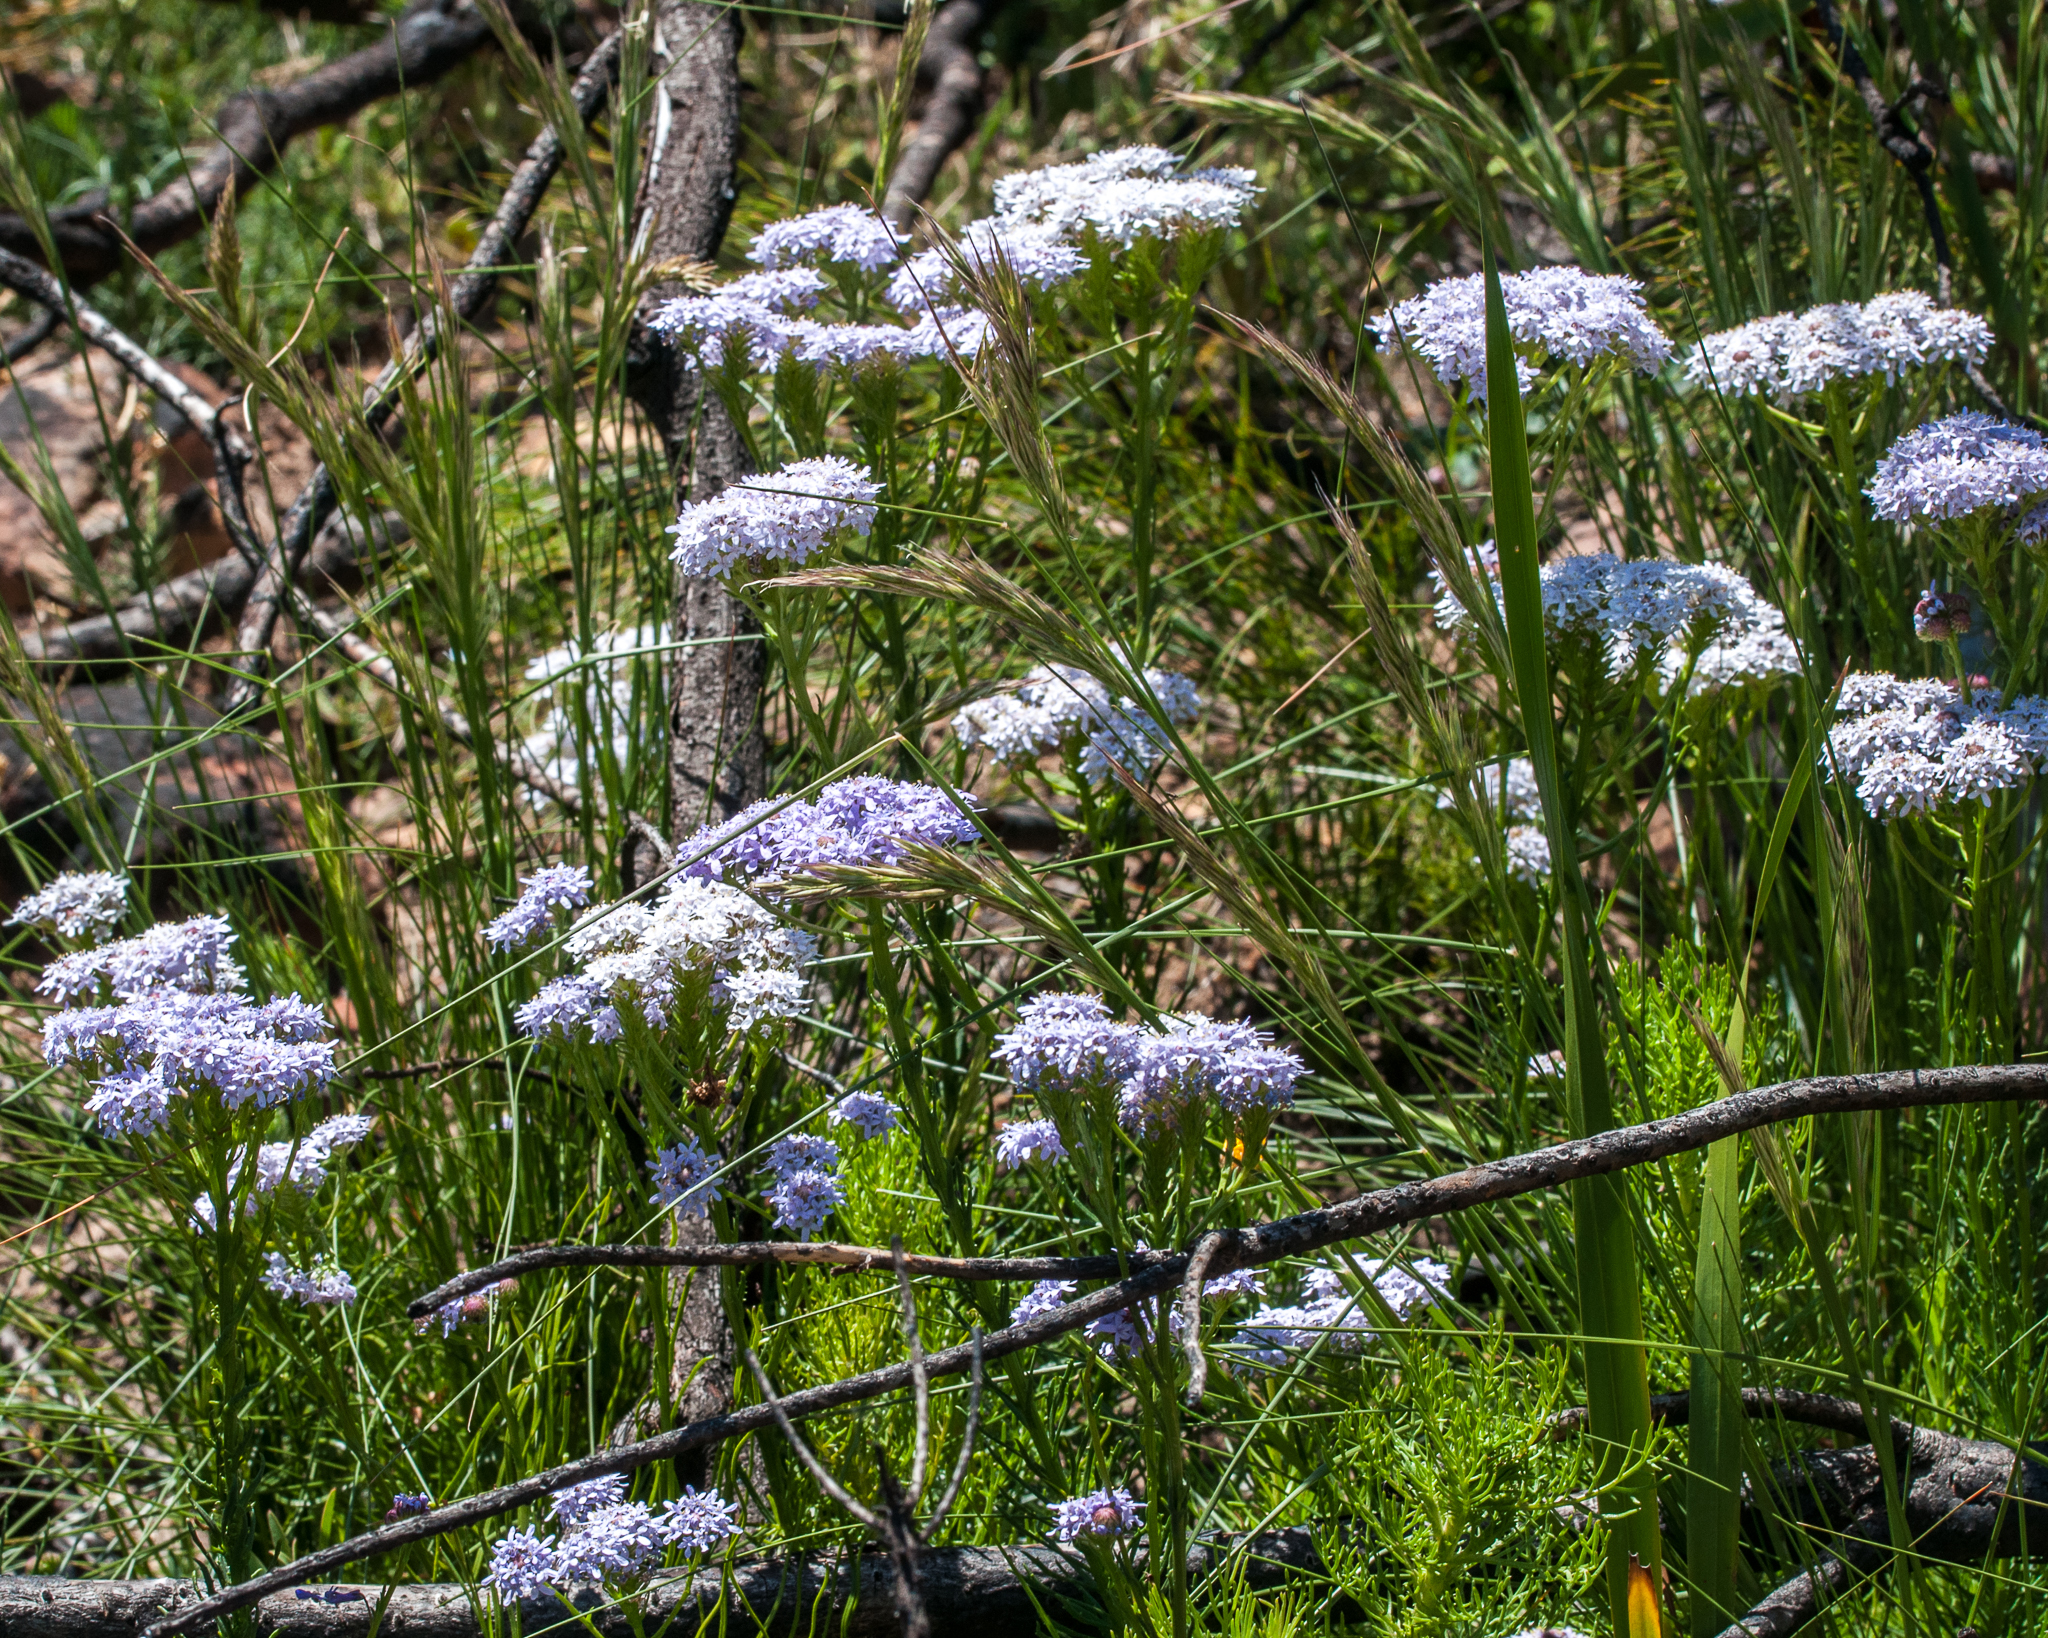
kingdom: Plantae
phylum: Tracheophyta
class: Magnoliopsida
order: Lamiales
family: Scrophulariaceae
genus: Pseudoselago
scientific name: Pseudoselago spuria
